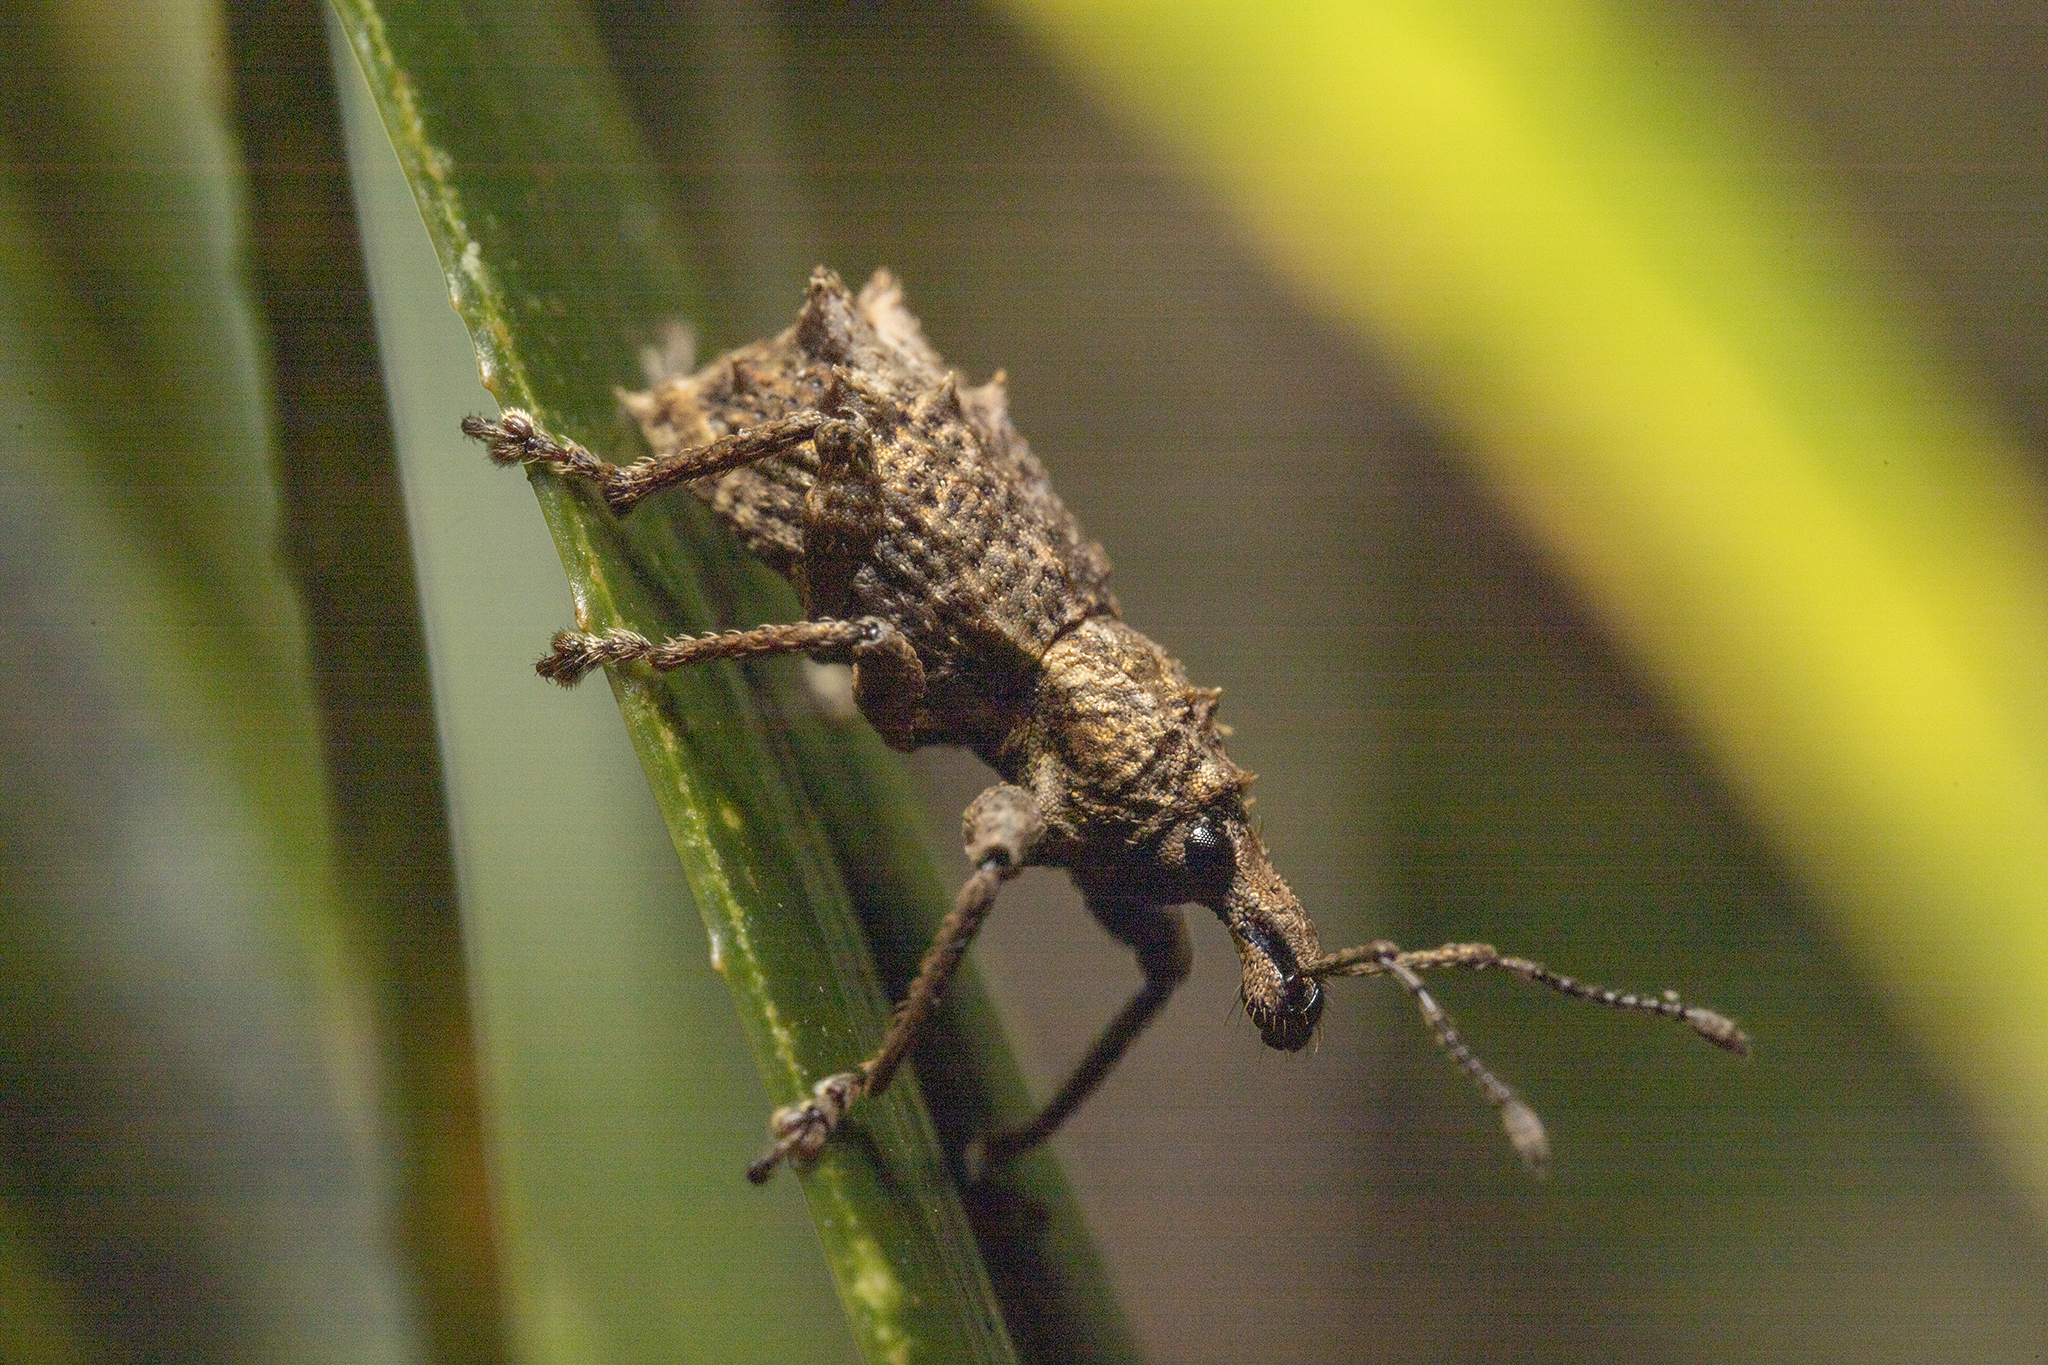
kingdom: Animalia
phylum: Arthropoda
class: Insecta
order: Coleoptera
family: Curculionidae
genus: Catoptes
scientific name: Catoptes coronatus
